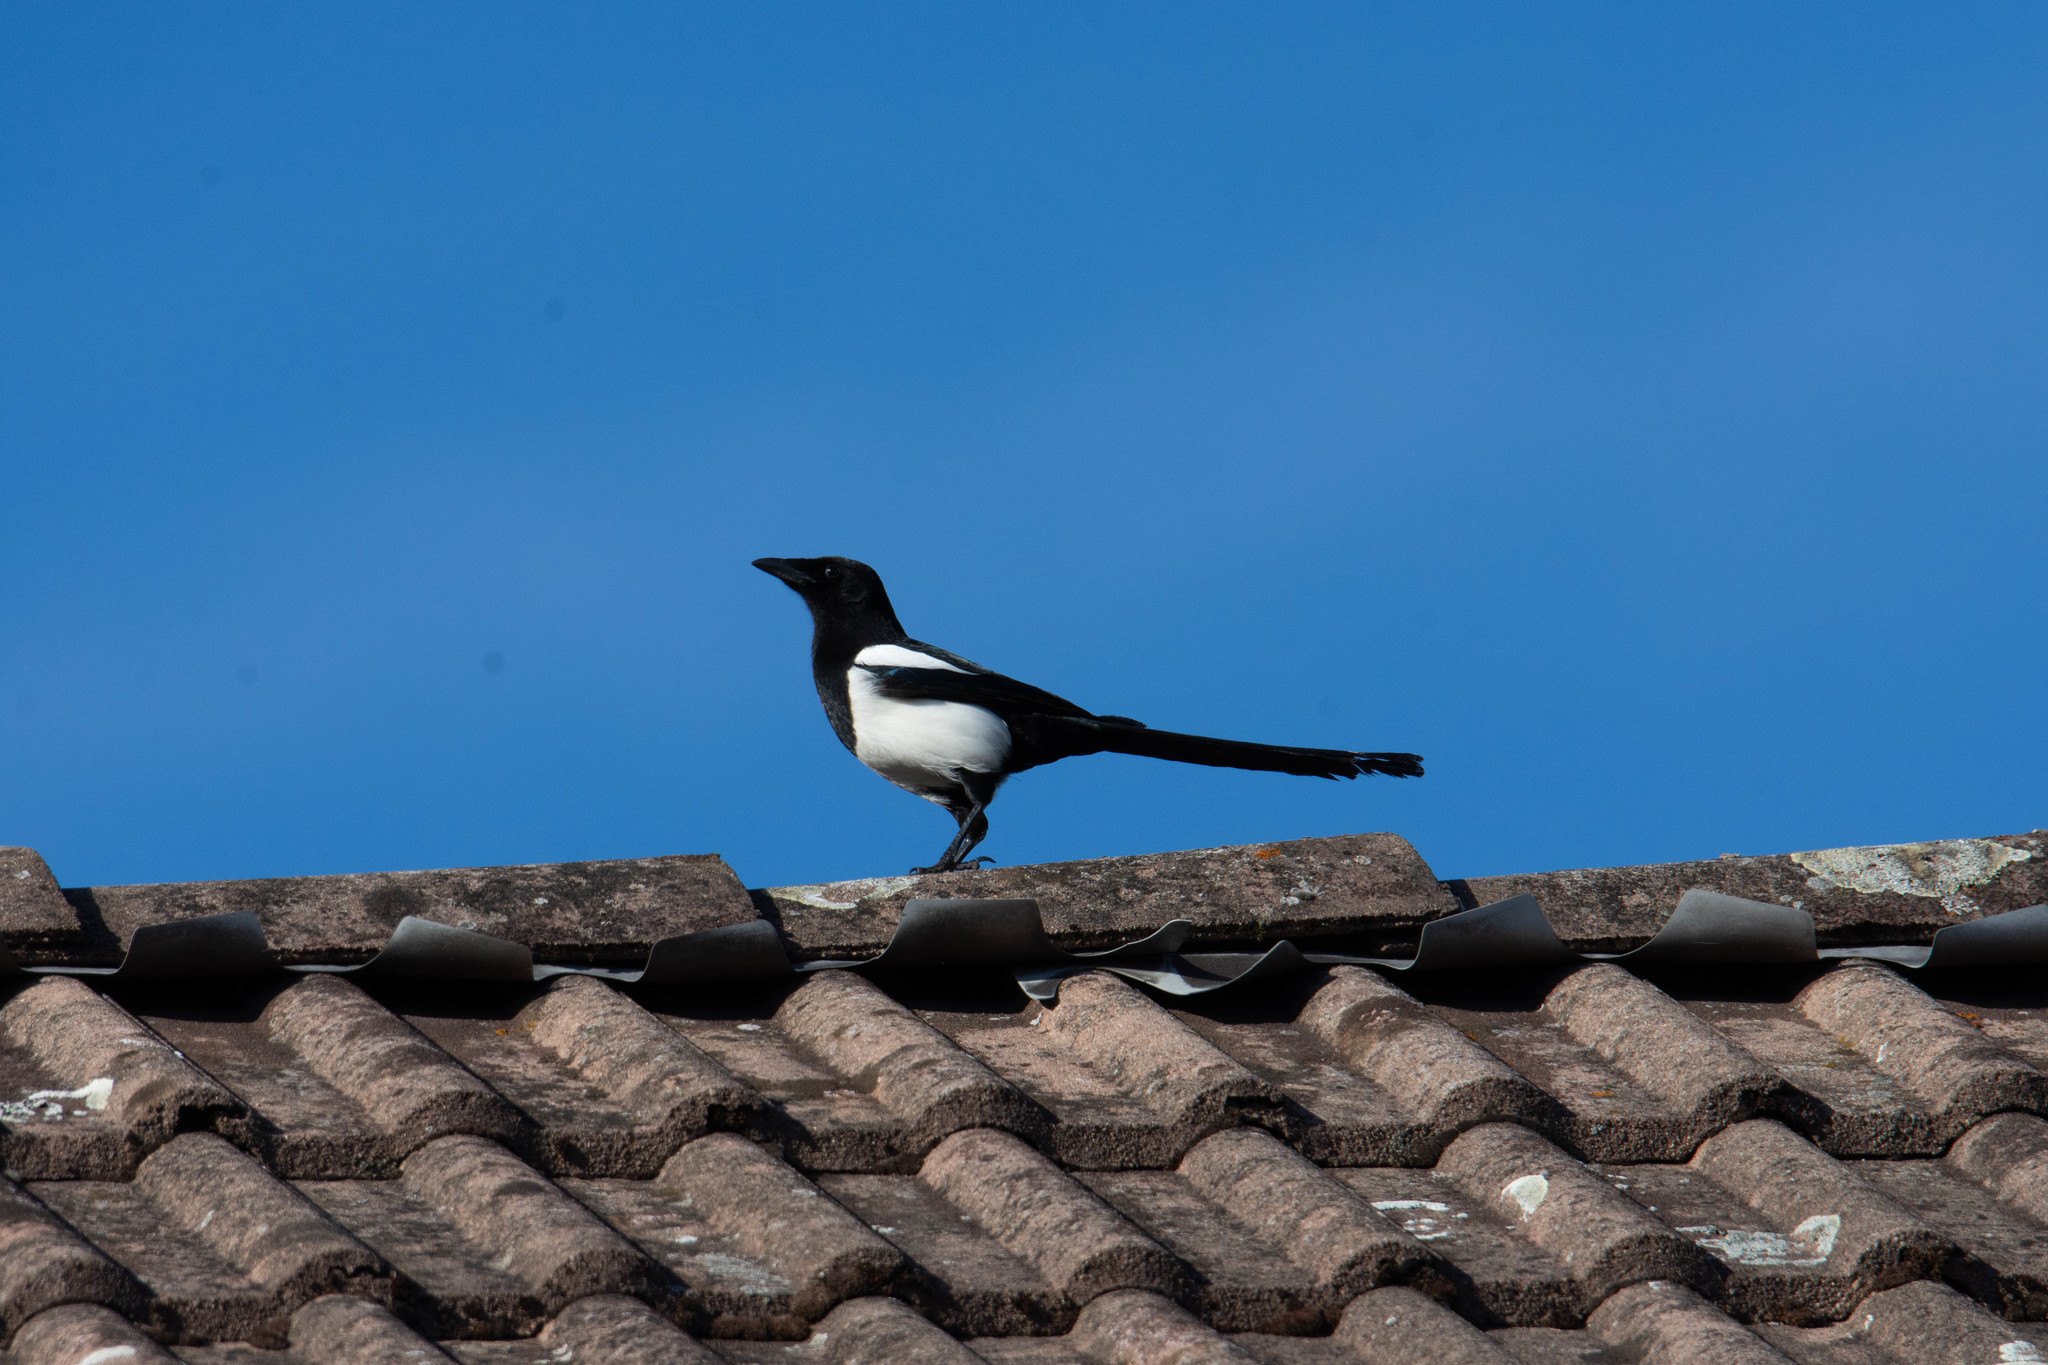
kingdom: Animalia
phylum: Chordata
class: Aves
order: Passeriformes
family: Corvidae
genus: Pica
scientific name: Pica pica
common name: Eurasian magpie
